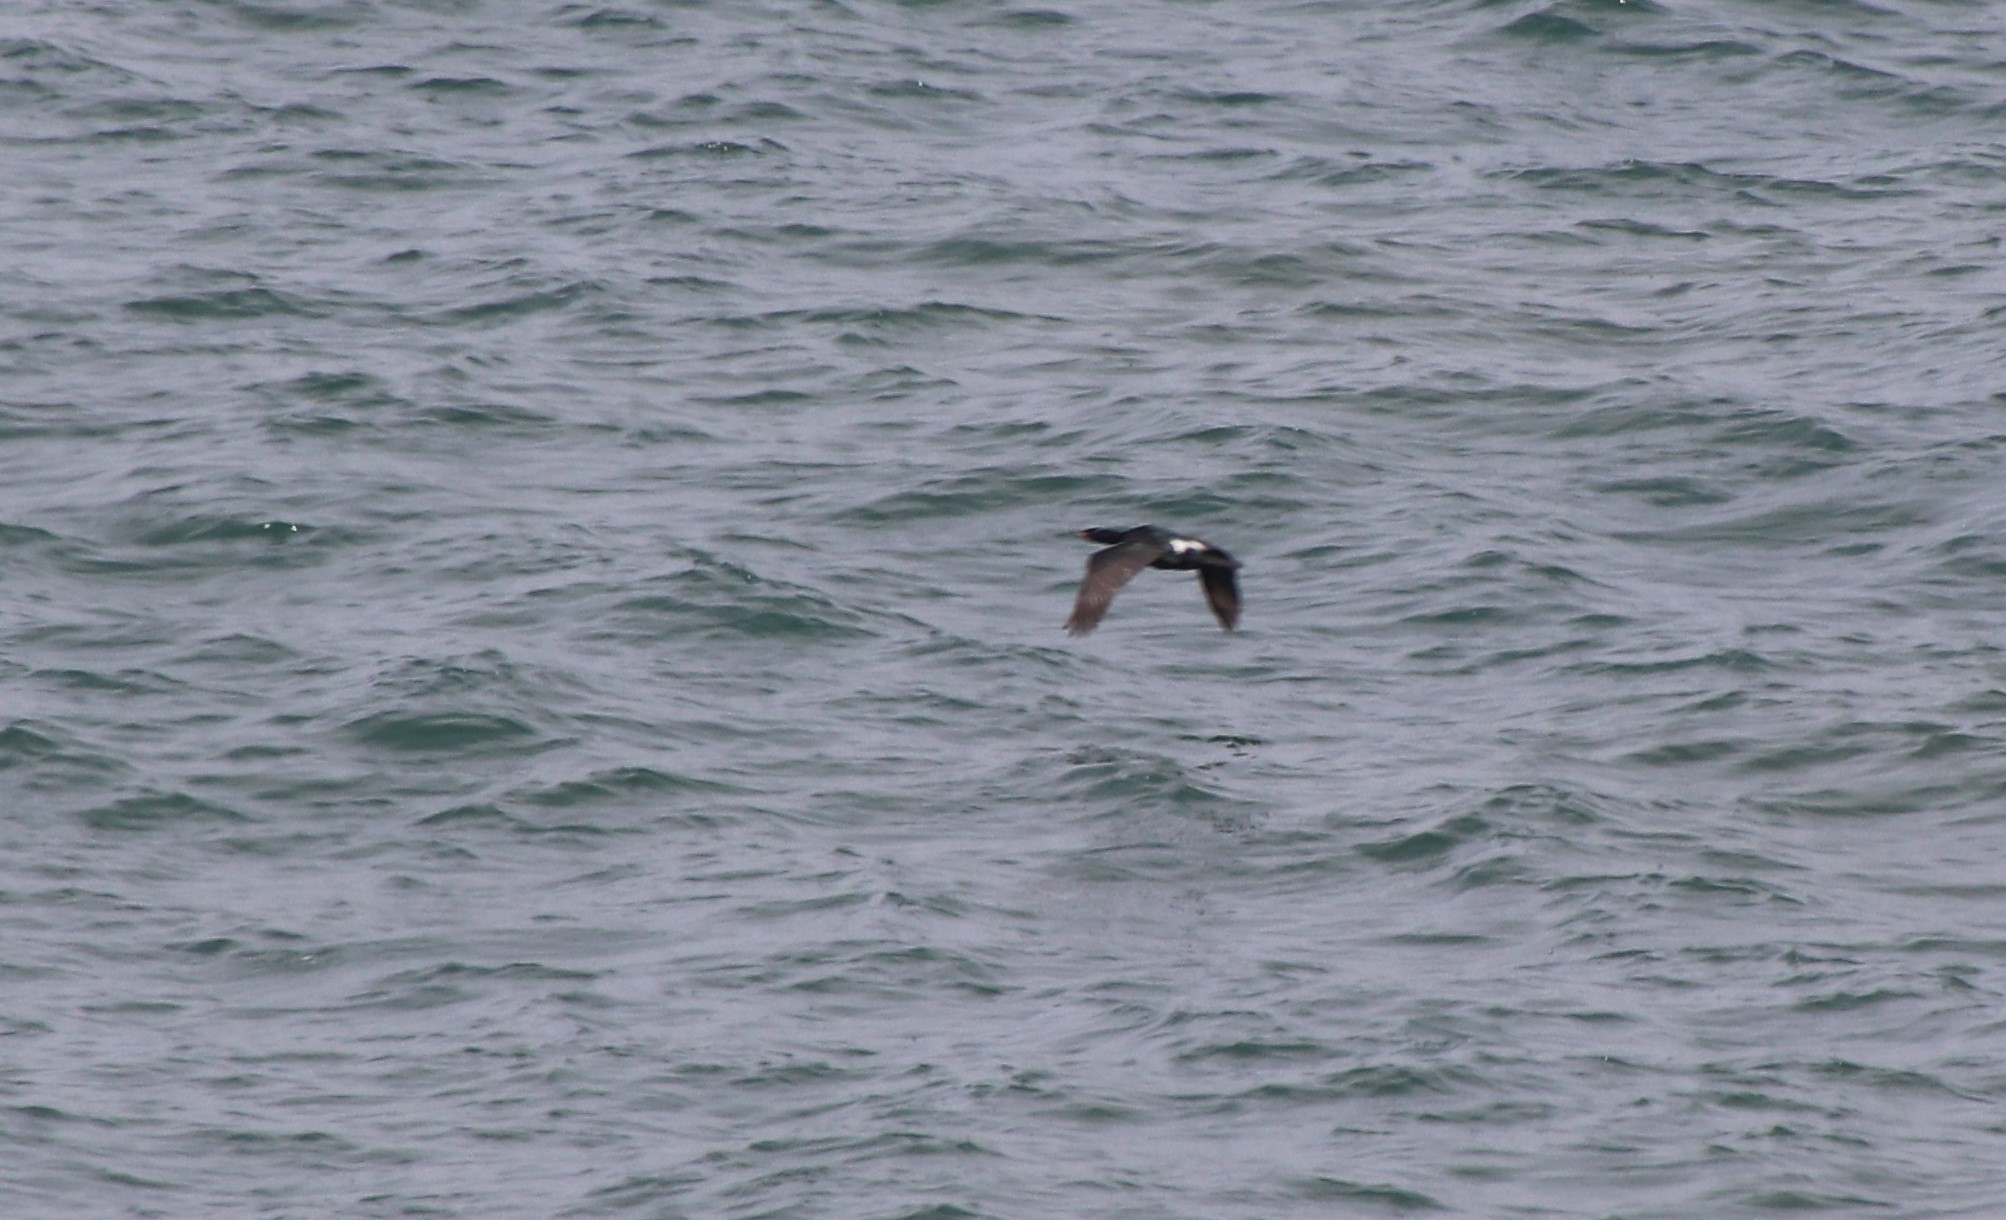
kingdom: Animalia
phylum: Chordata
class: Aves
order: Suliformes
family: Phalacrocoracidae
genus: Phalacrocorax
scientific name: Phalacrocorax pelagicus
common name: Pelagic cormorant
